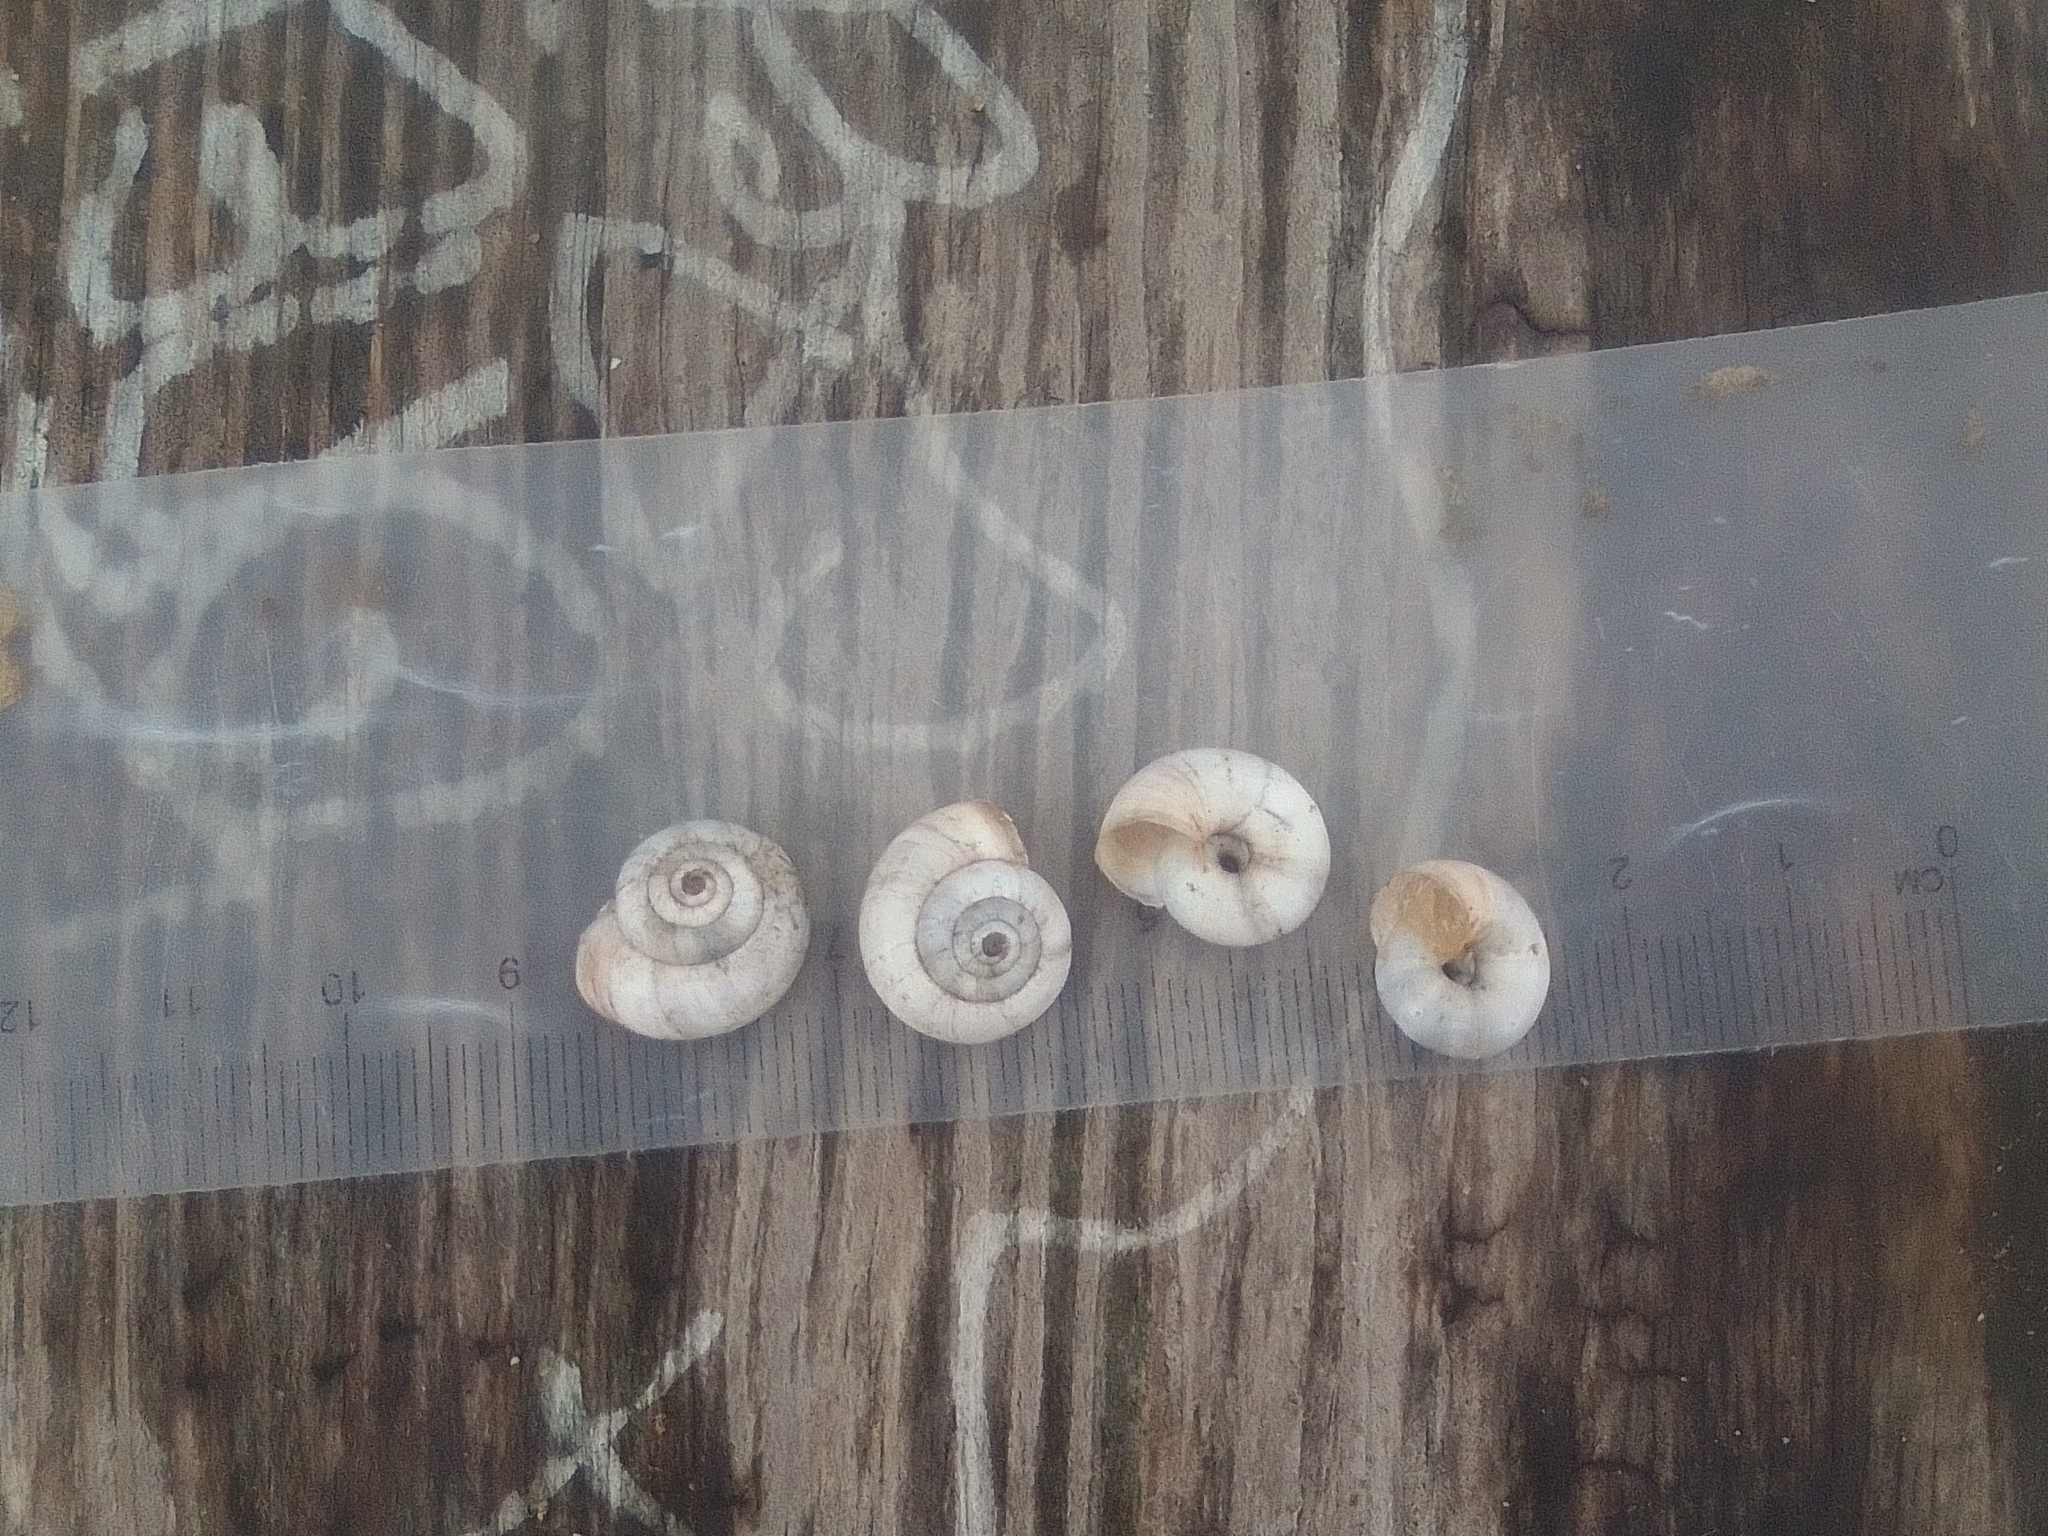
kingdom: Animalia
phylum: Mollusca
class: Gastropoda
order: Stylommatophora
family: Geomitridae
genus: Xeropicta
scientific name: Xeropicta derbentina
